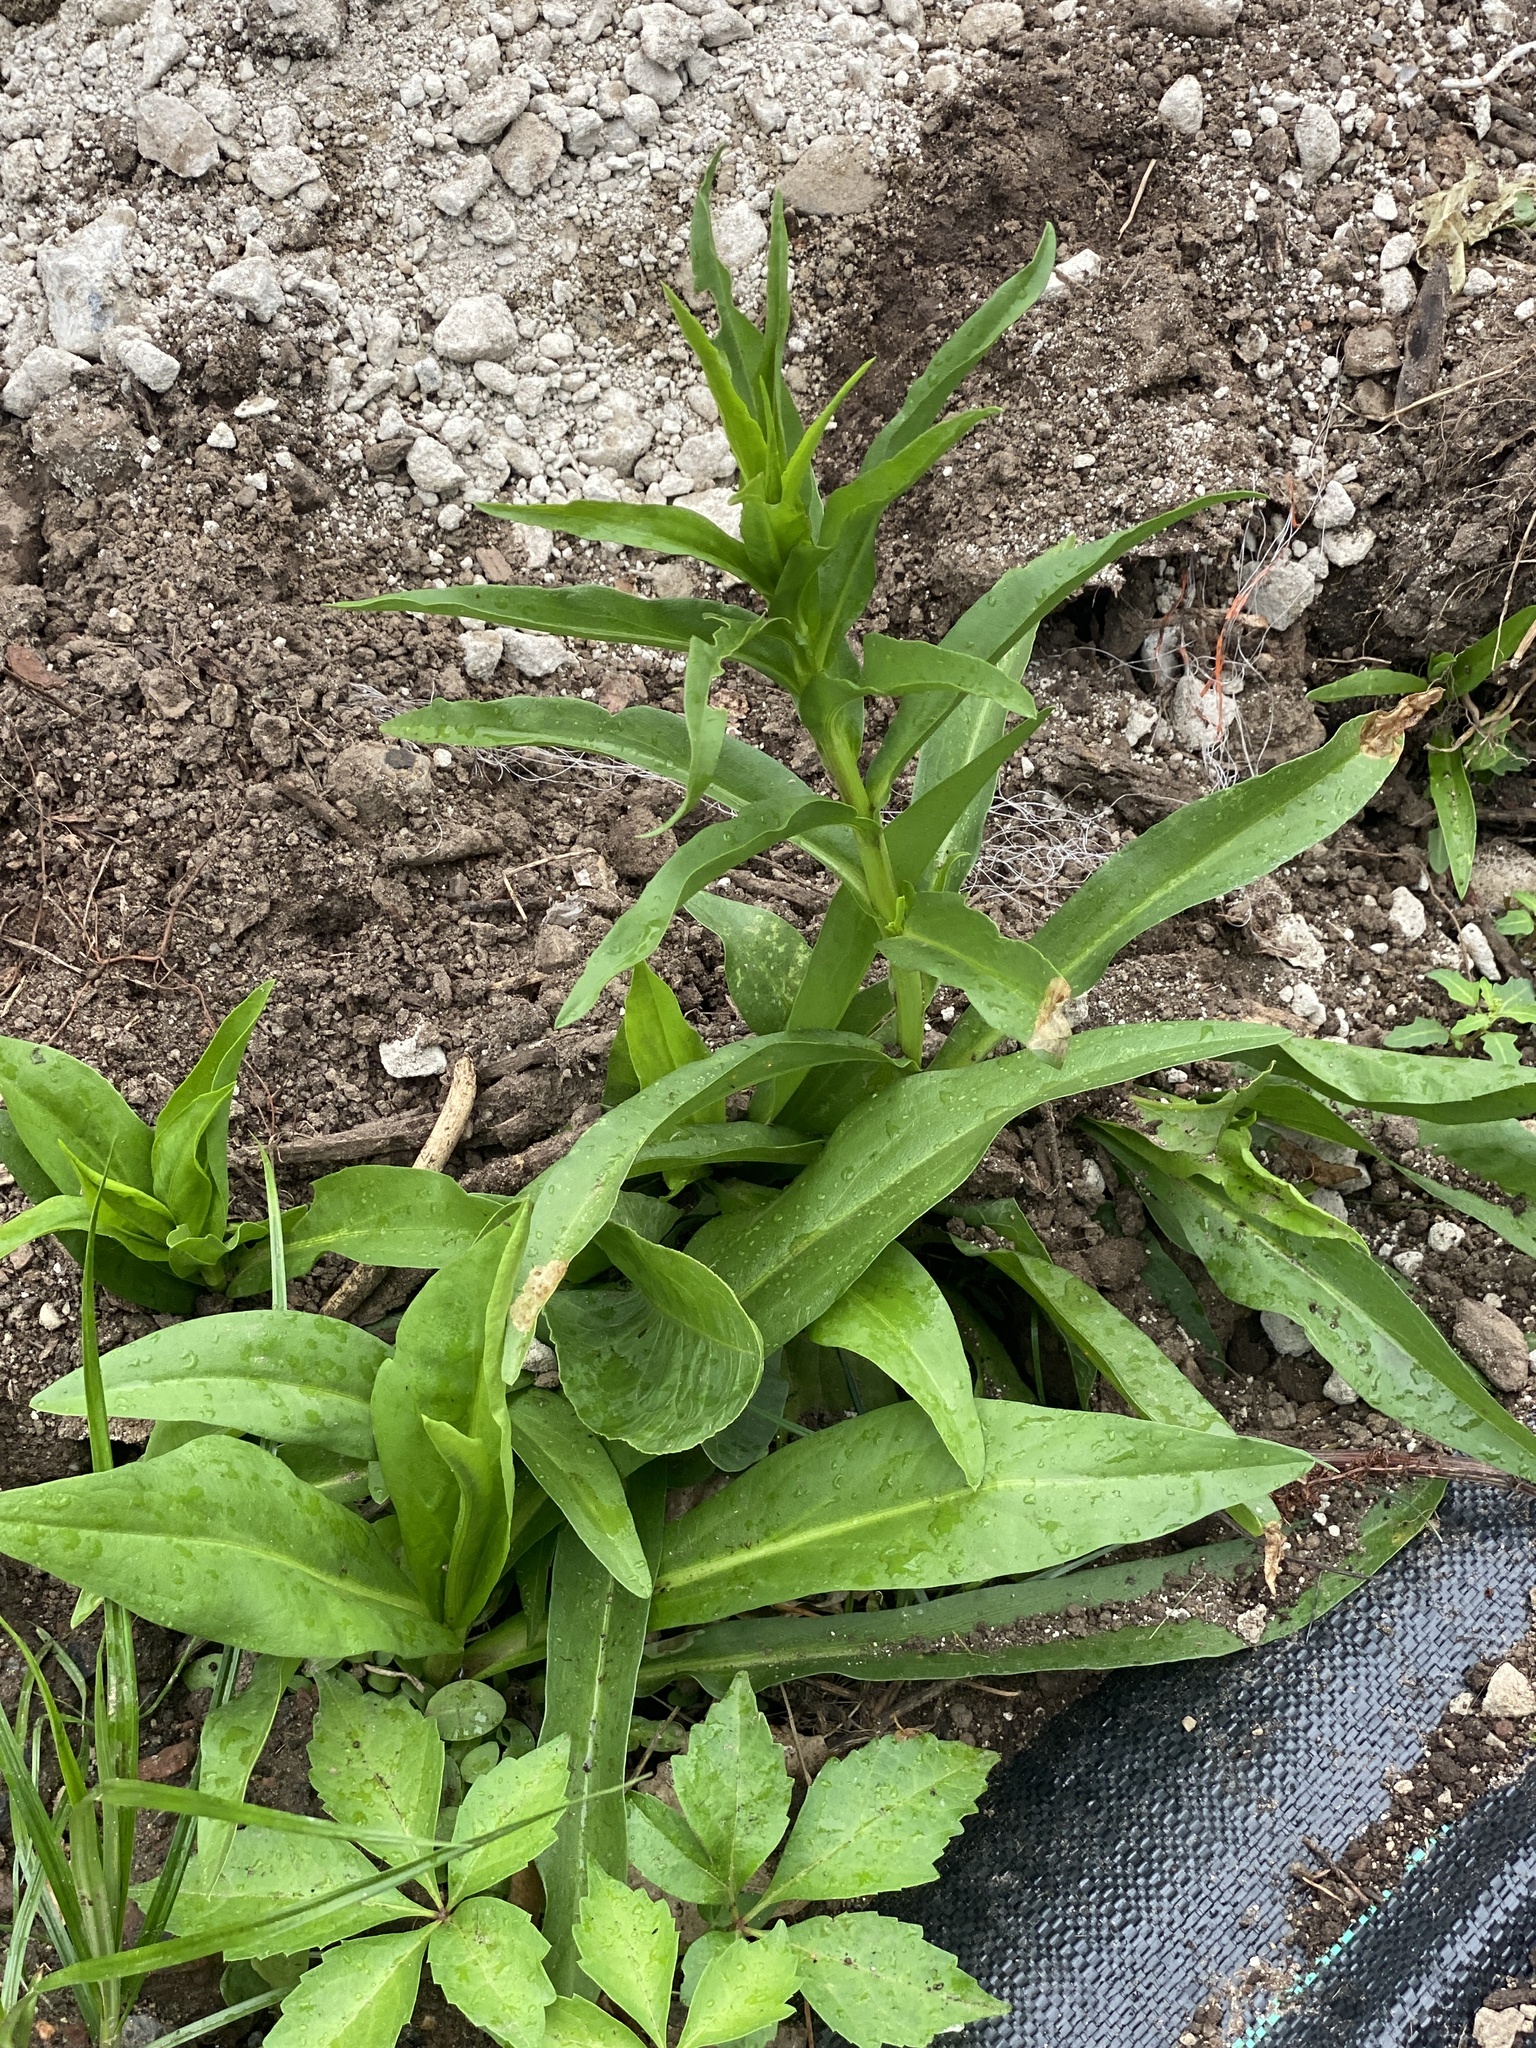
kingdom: Plantae
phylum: Tracheophyta
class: Magnoliopsida
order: Asterales
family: Asteraceae
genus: Solidago
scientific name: Solidago sempervirens
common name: Salt-marsh goldenrod
